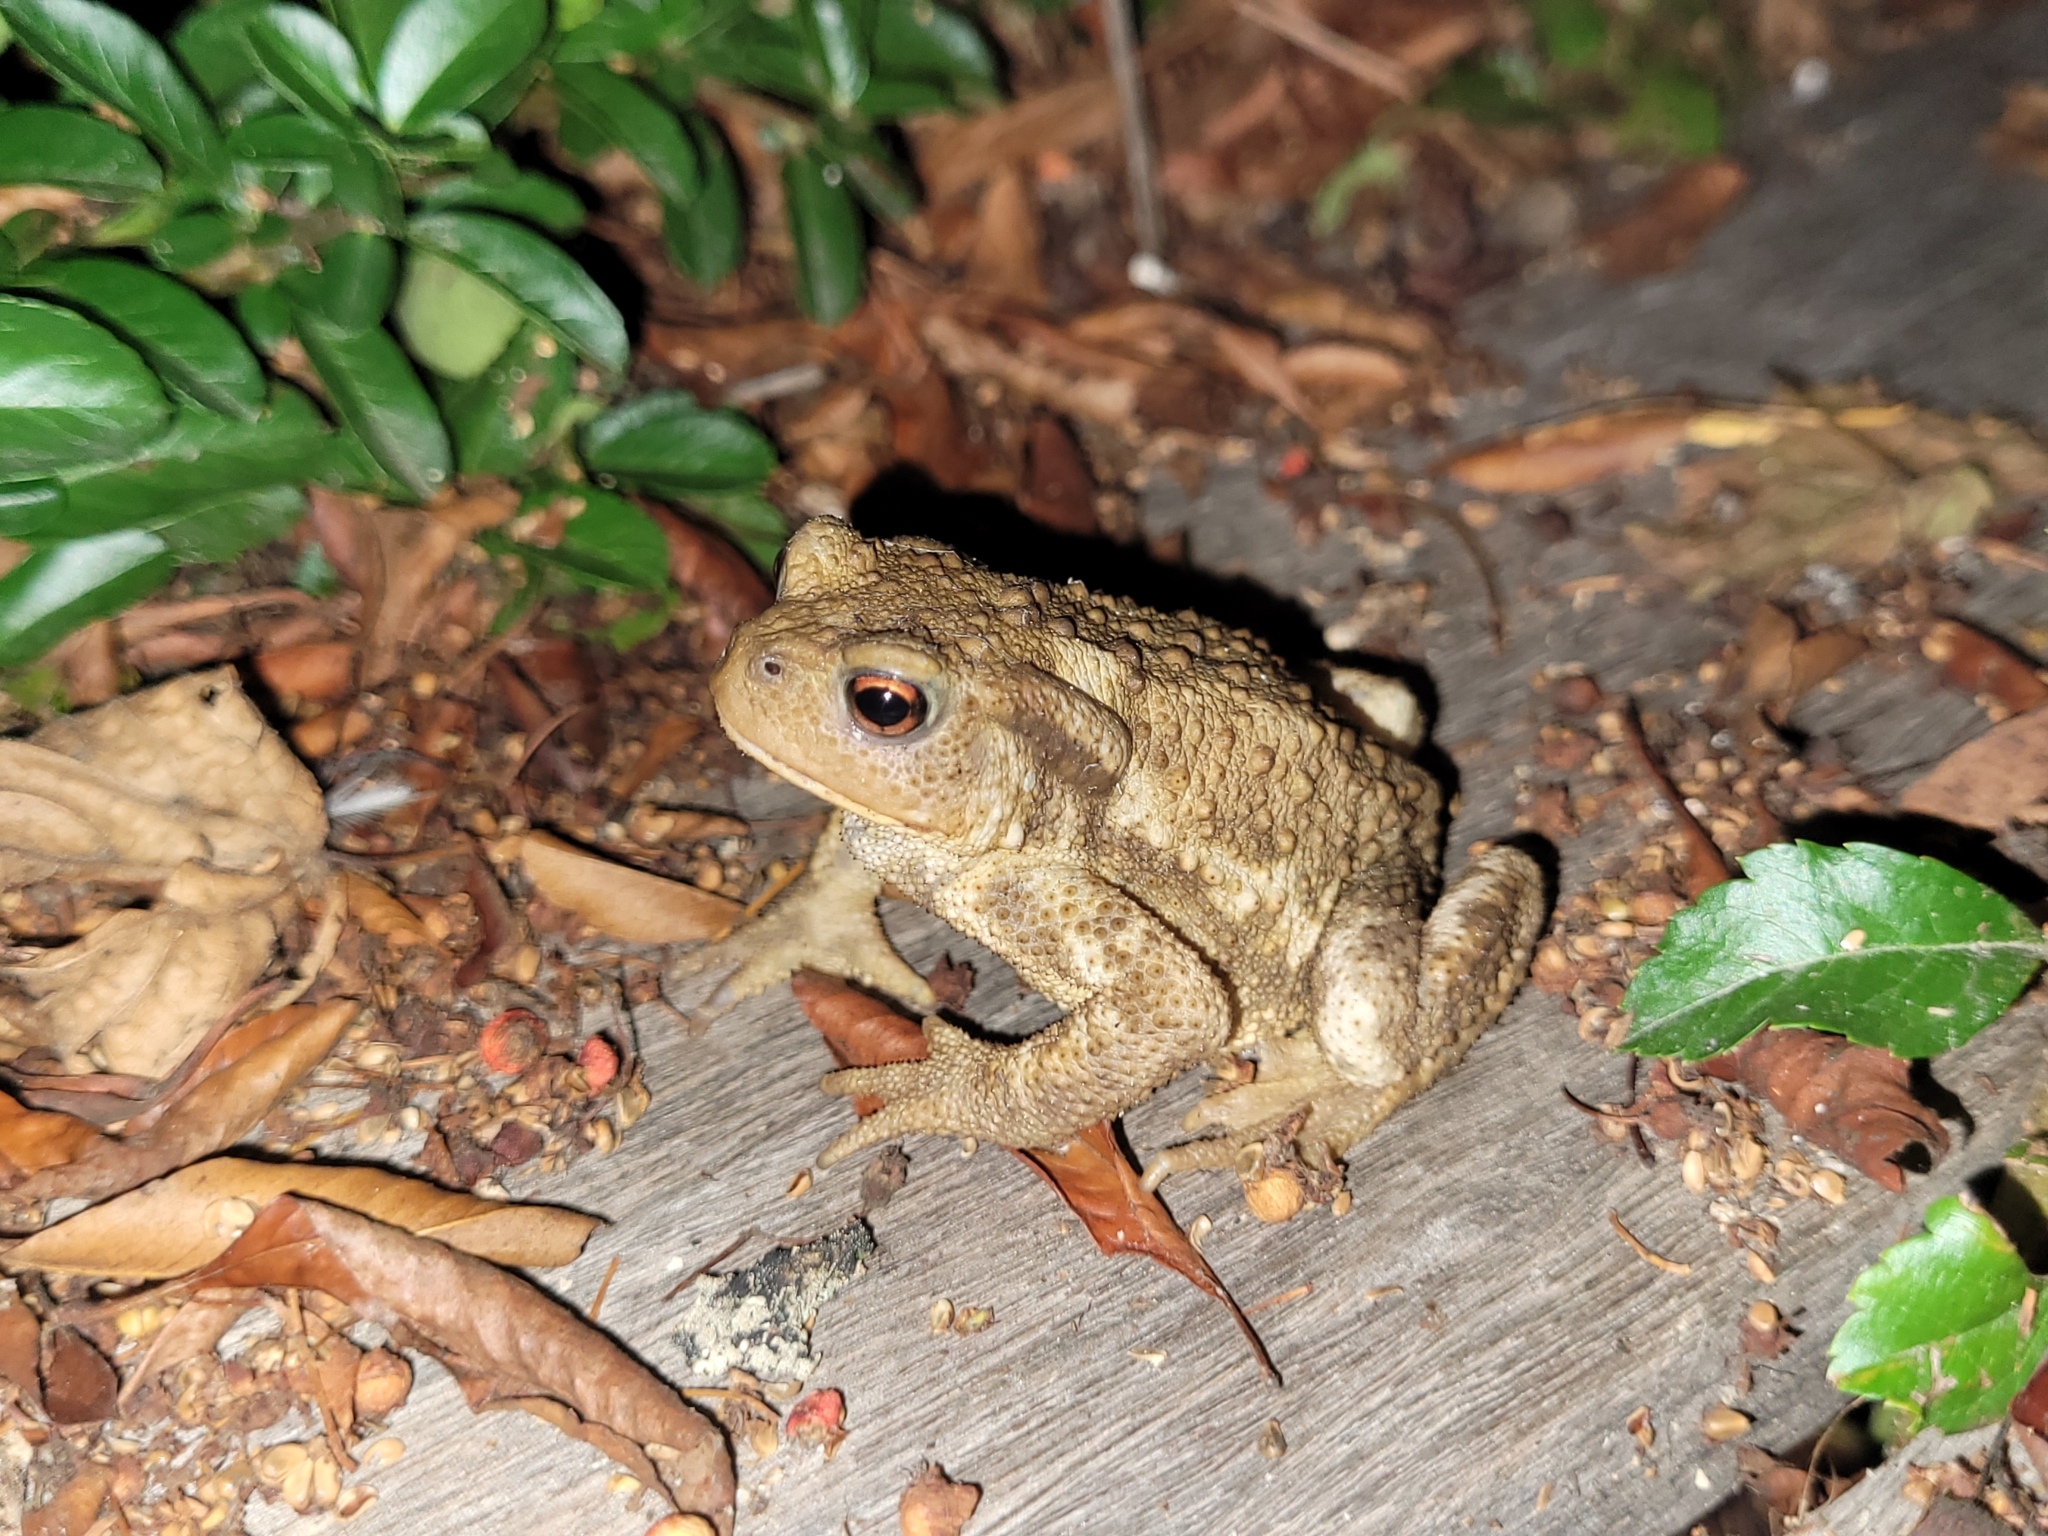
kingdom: Animalia
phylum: Chordata
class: Amphibia
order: Anura
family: Bufonidae
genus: Bufo
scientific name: Bufo spinosus
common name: Western common toad
